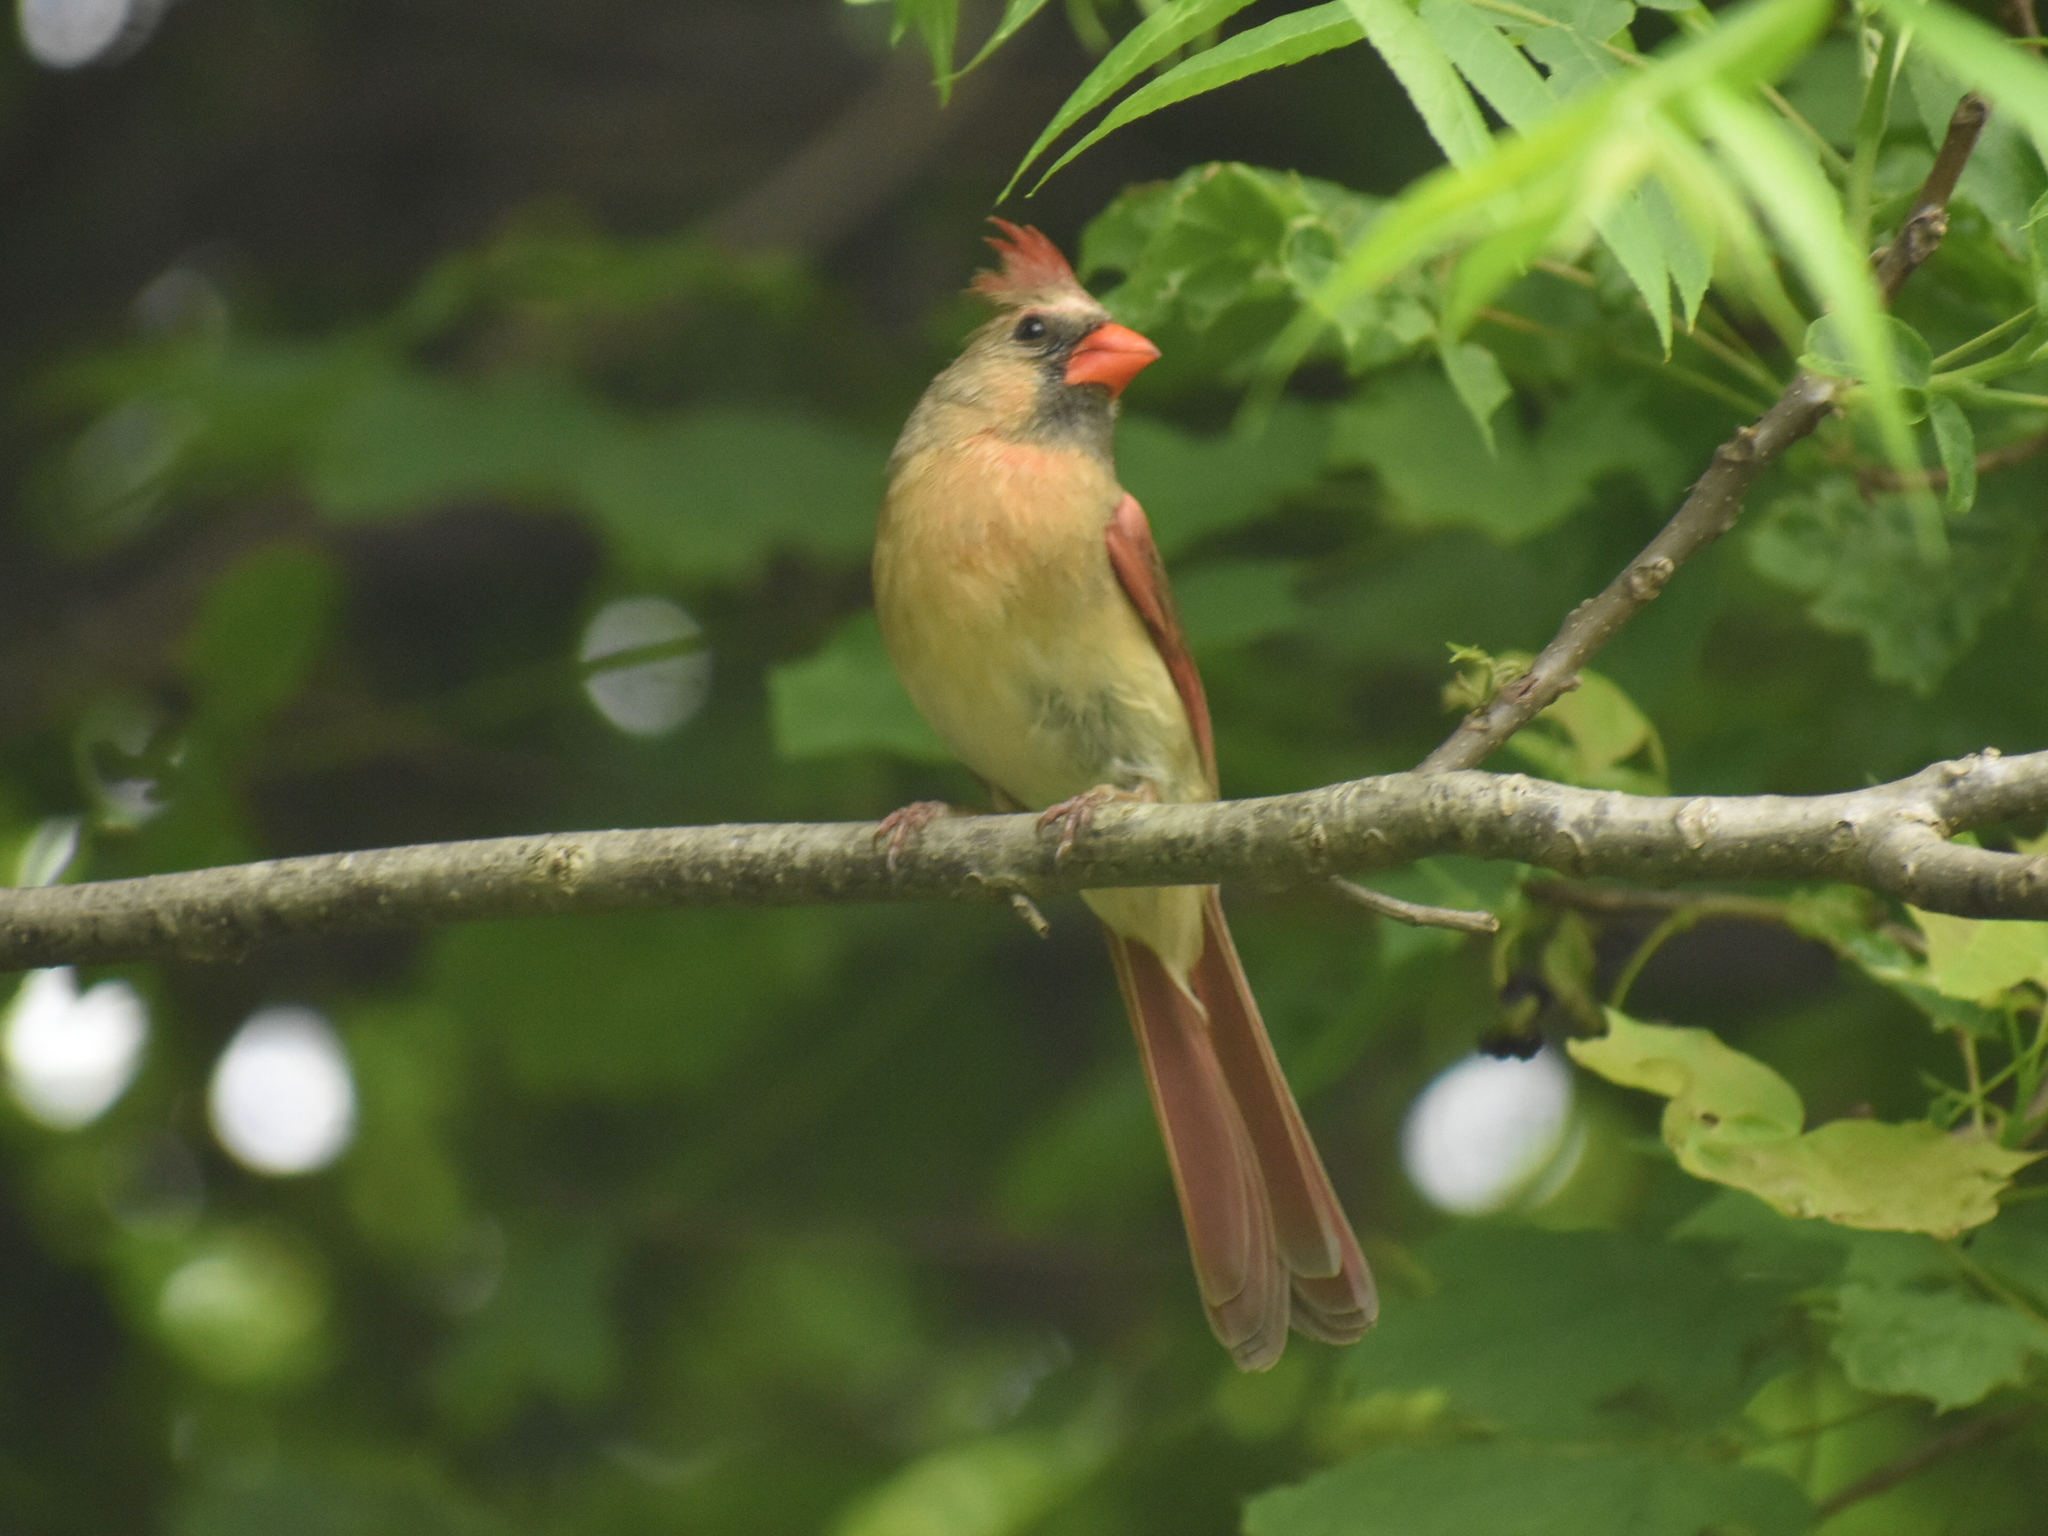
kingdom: Animalia
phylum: Chordata
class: Aves
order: Passeriformes
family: Cardinalidae
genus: Cardinalis
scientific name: Cardinalis cardinalis
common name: Northern cardinal
